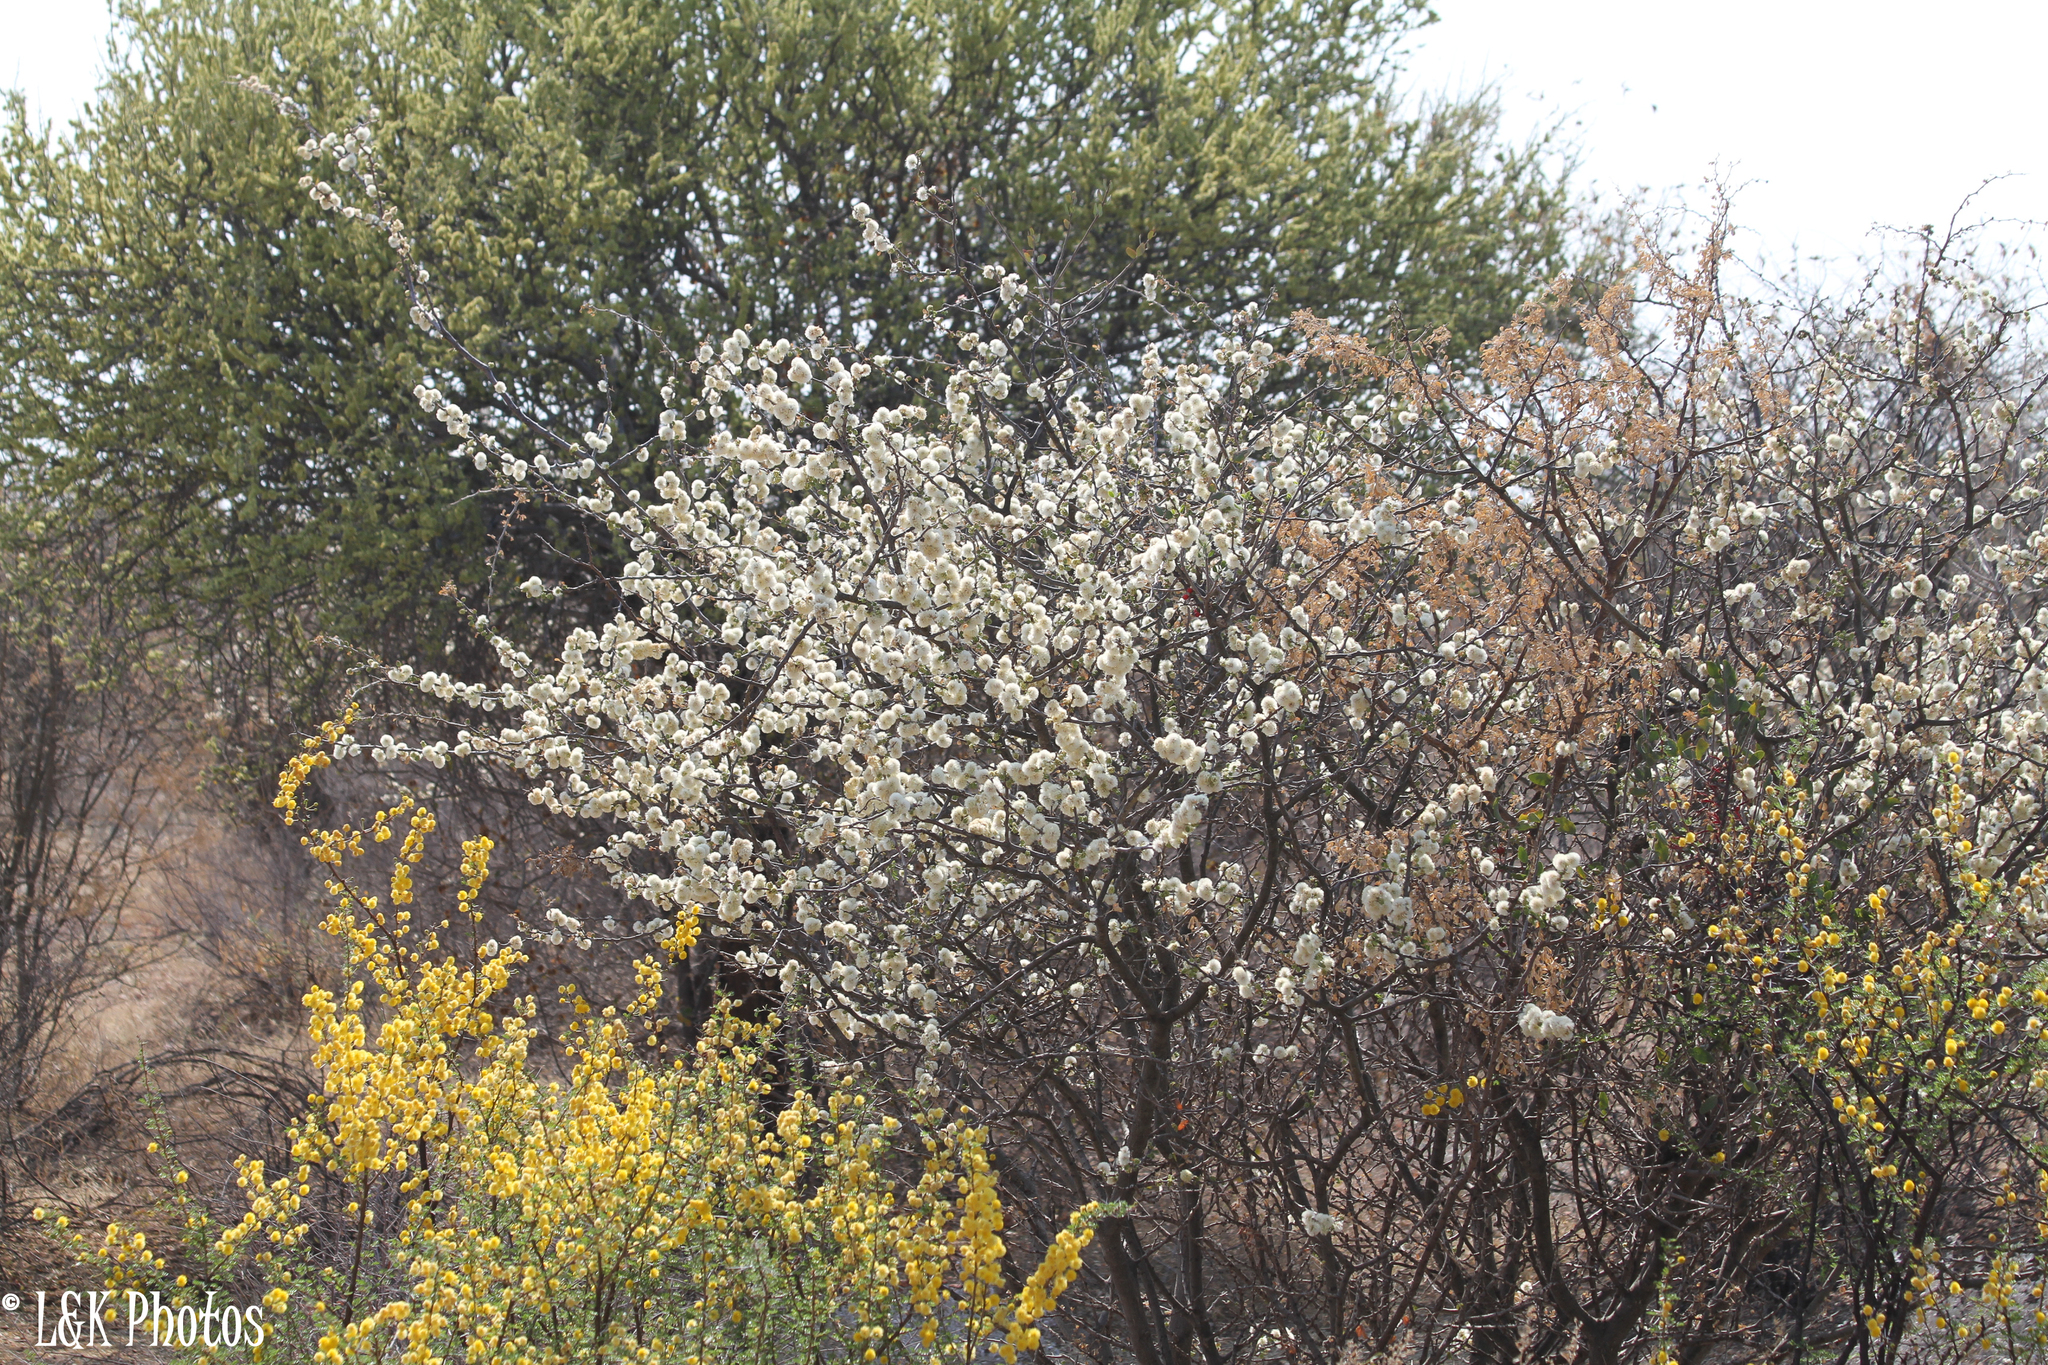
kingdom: Plantae
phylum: Tracheophyta
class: Magnoliopsida
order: Fabales
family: Fabaceae
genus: Senegalia
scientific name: Senegalia mellifera
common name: Hookthorn
